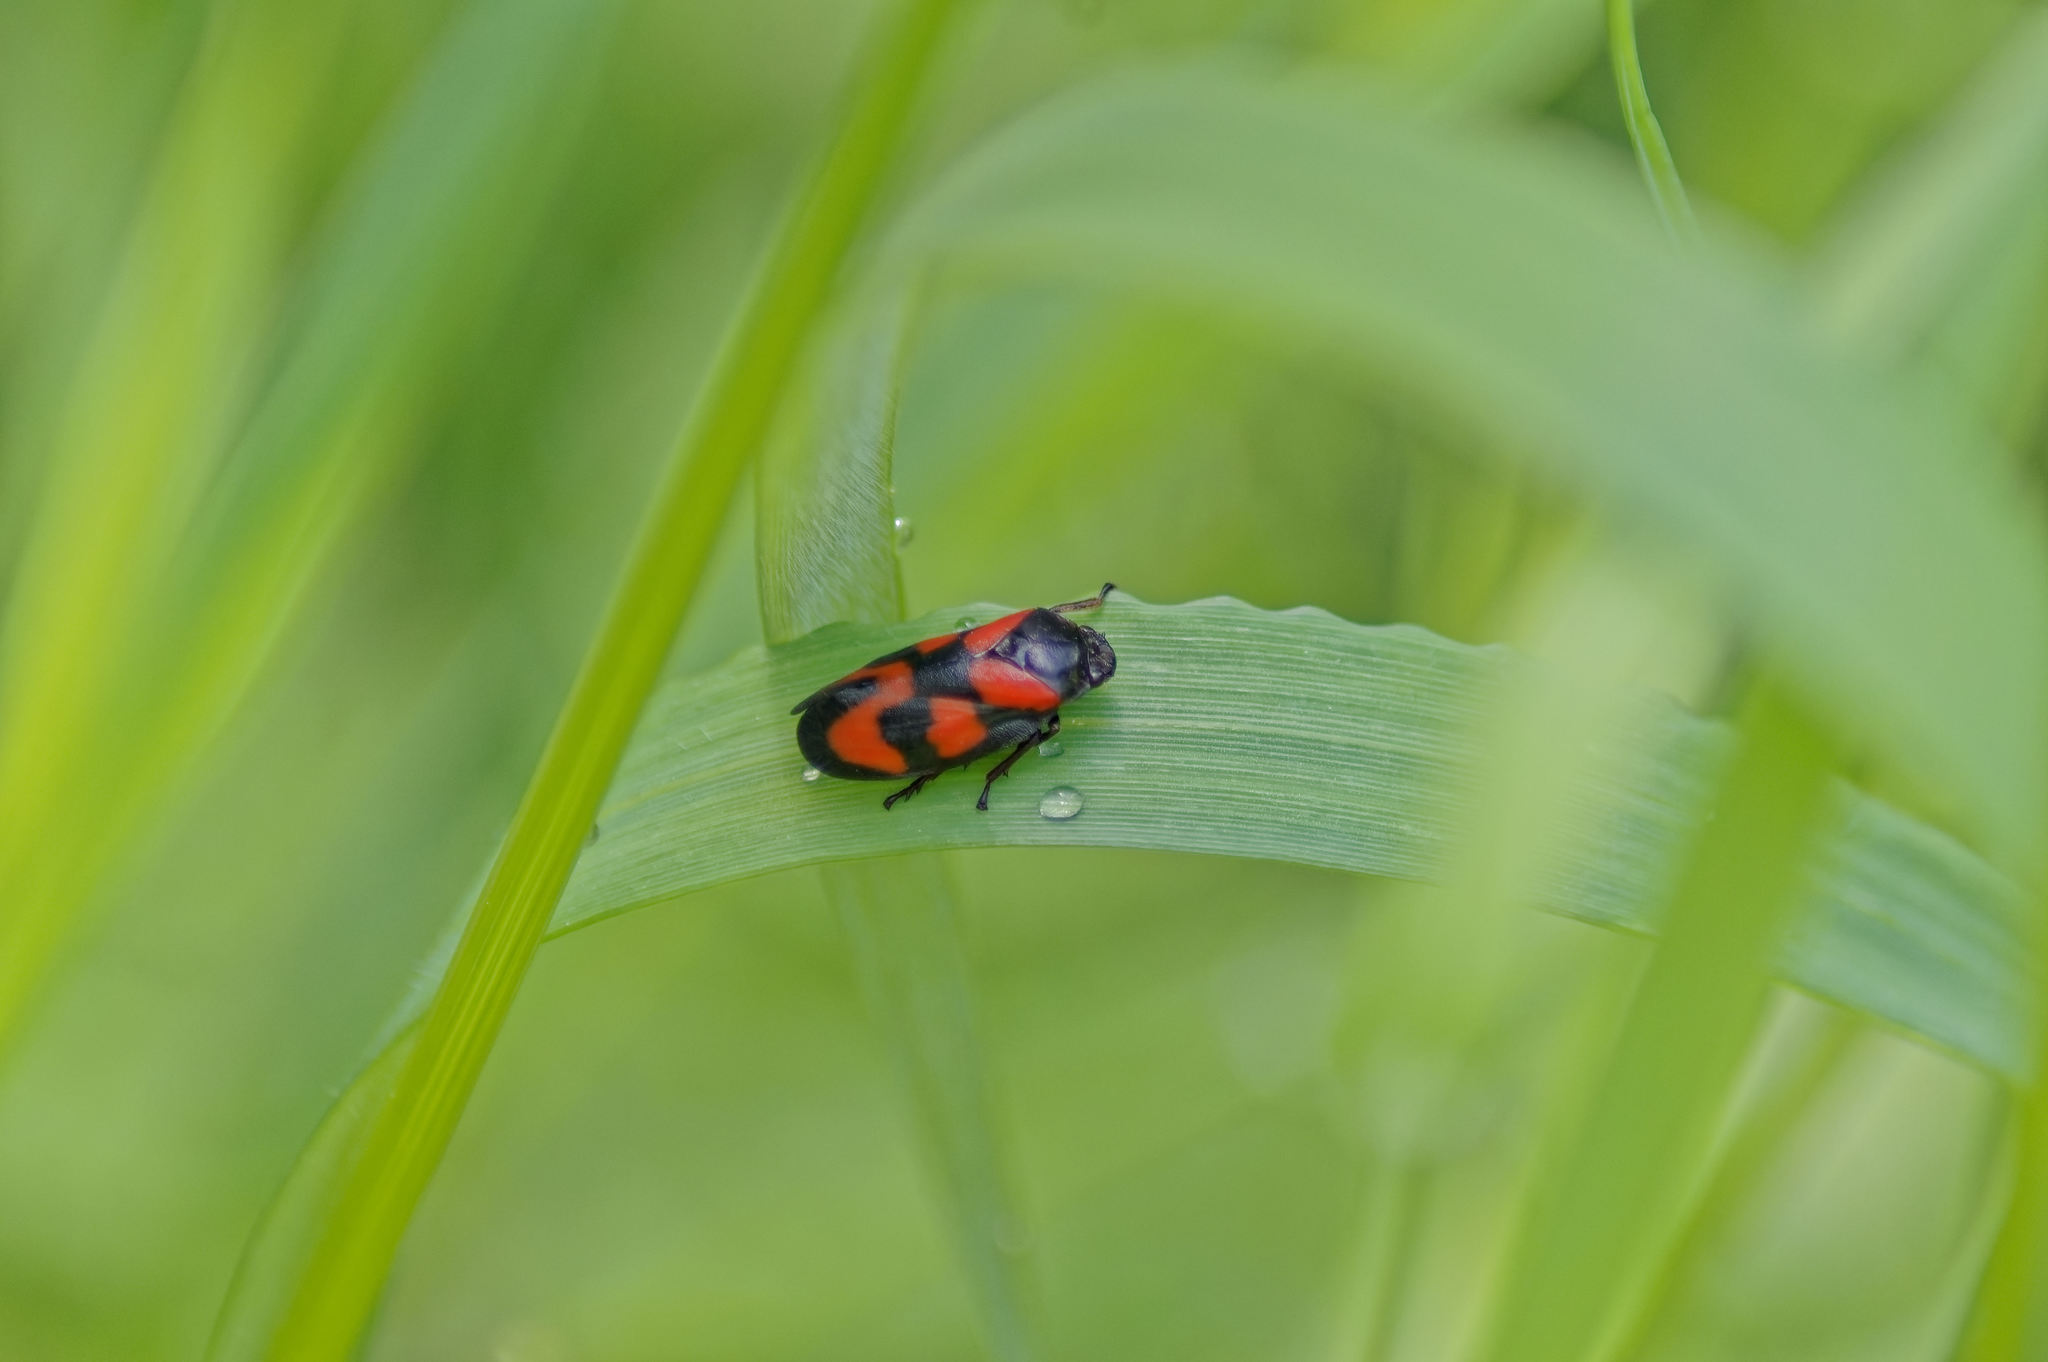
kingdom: Animalia
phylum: Arthropoda
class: Insecta
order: Hemiptera
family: Cercopidae
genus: Cercopis
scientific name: Cercopis vulnerata
